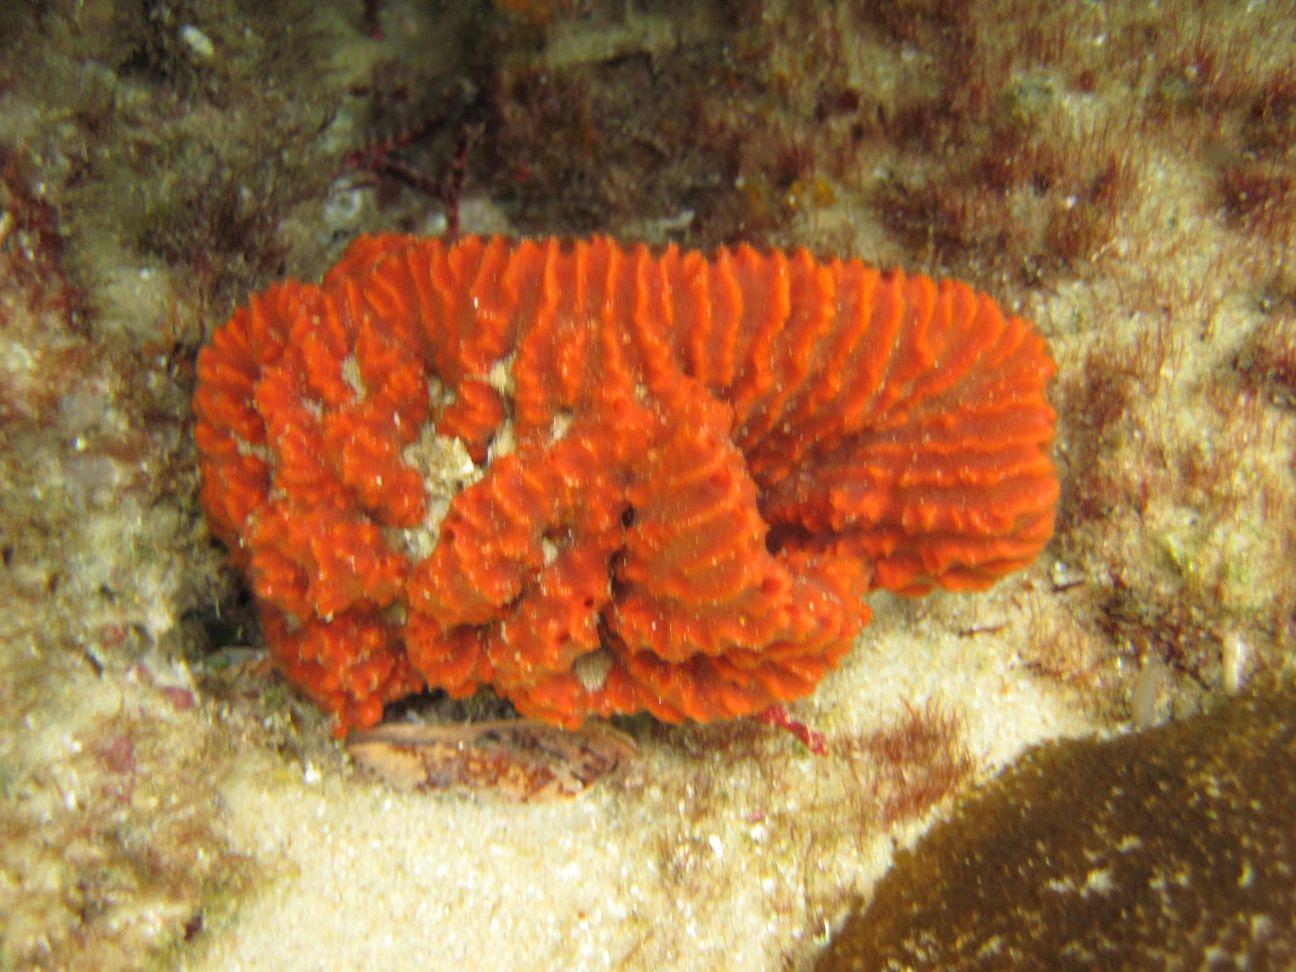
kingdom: Animalia
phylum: Porifera
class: Demospongiae
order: Axinellida
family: Axinellidae
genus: Axinella
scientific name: Axinella weltnerii
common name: Crumpled sponge
